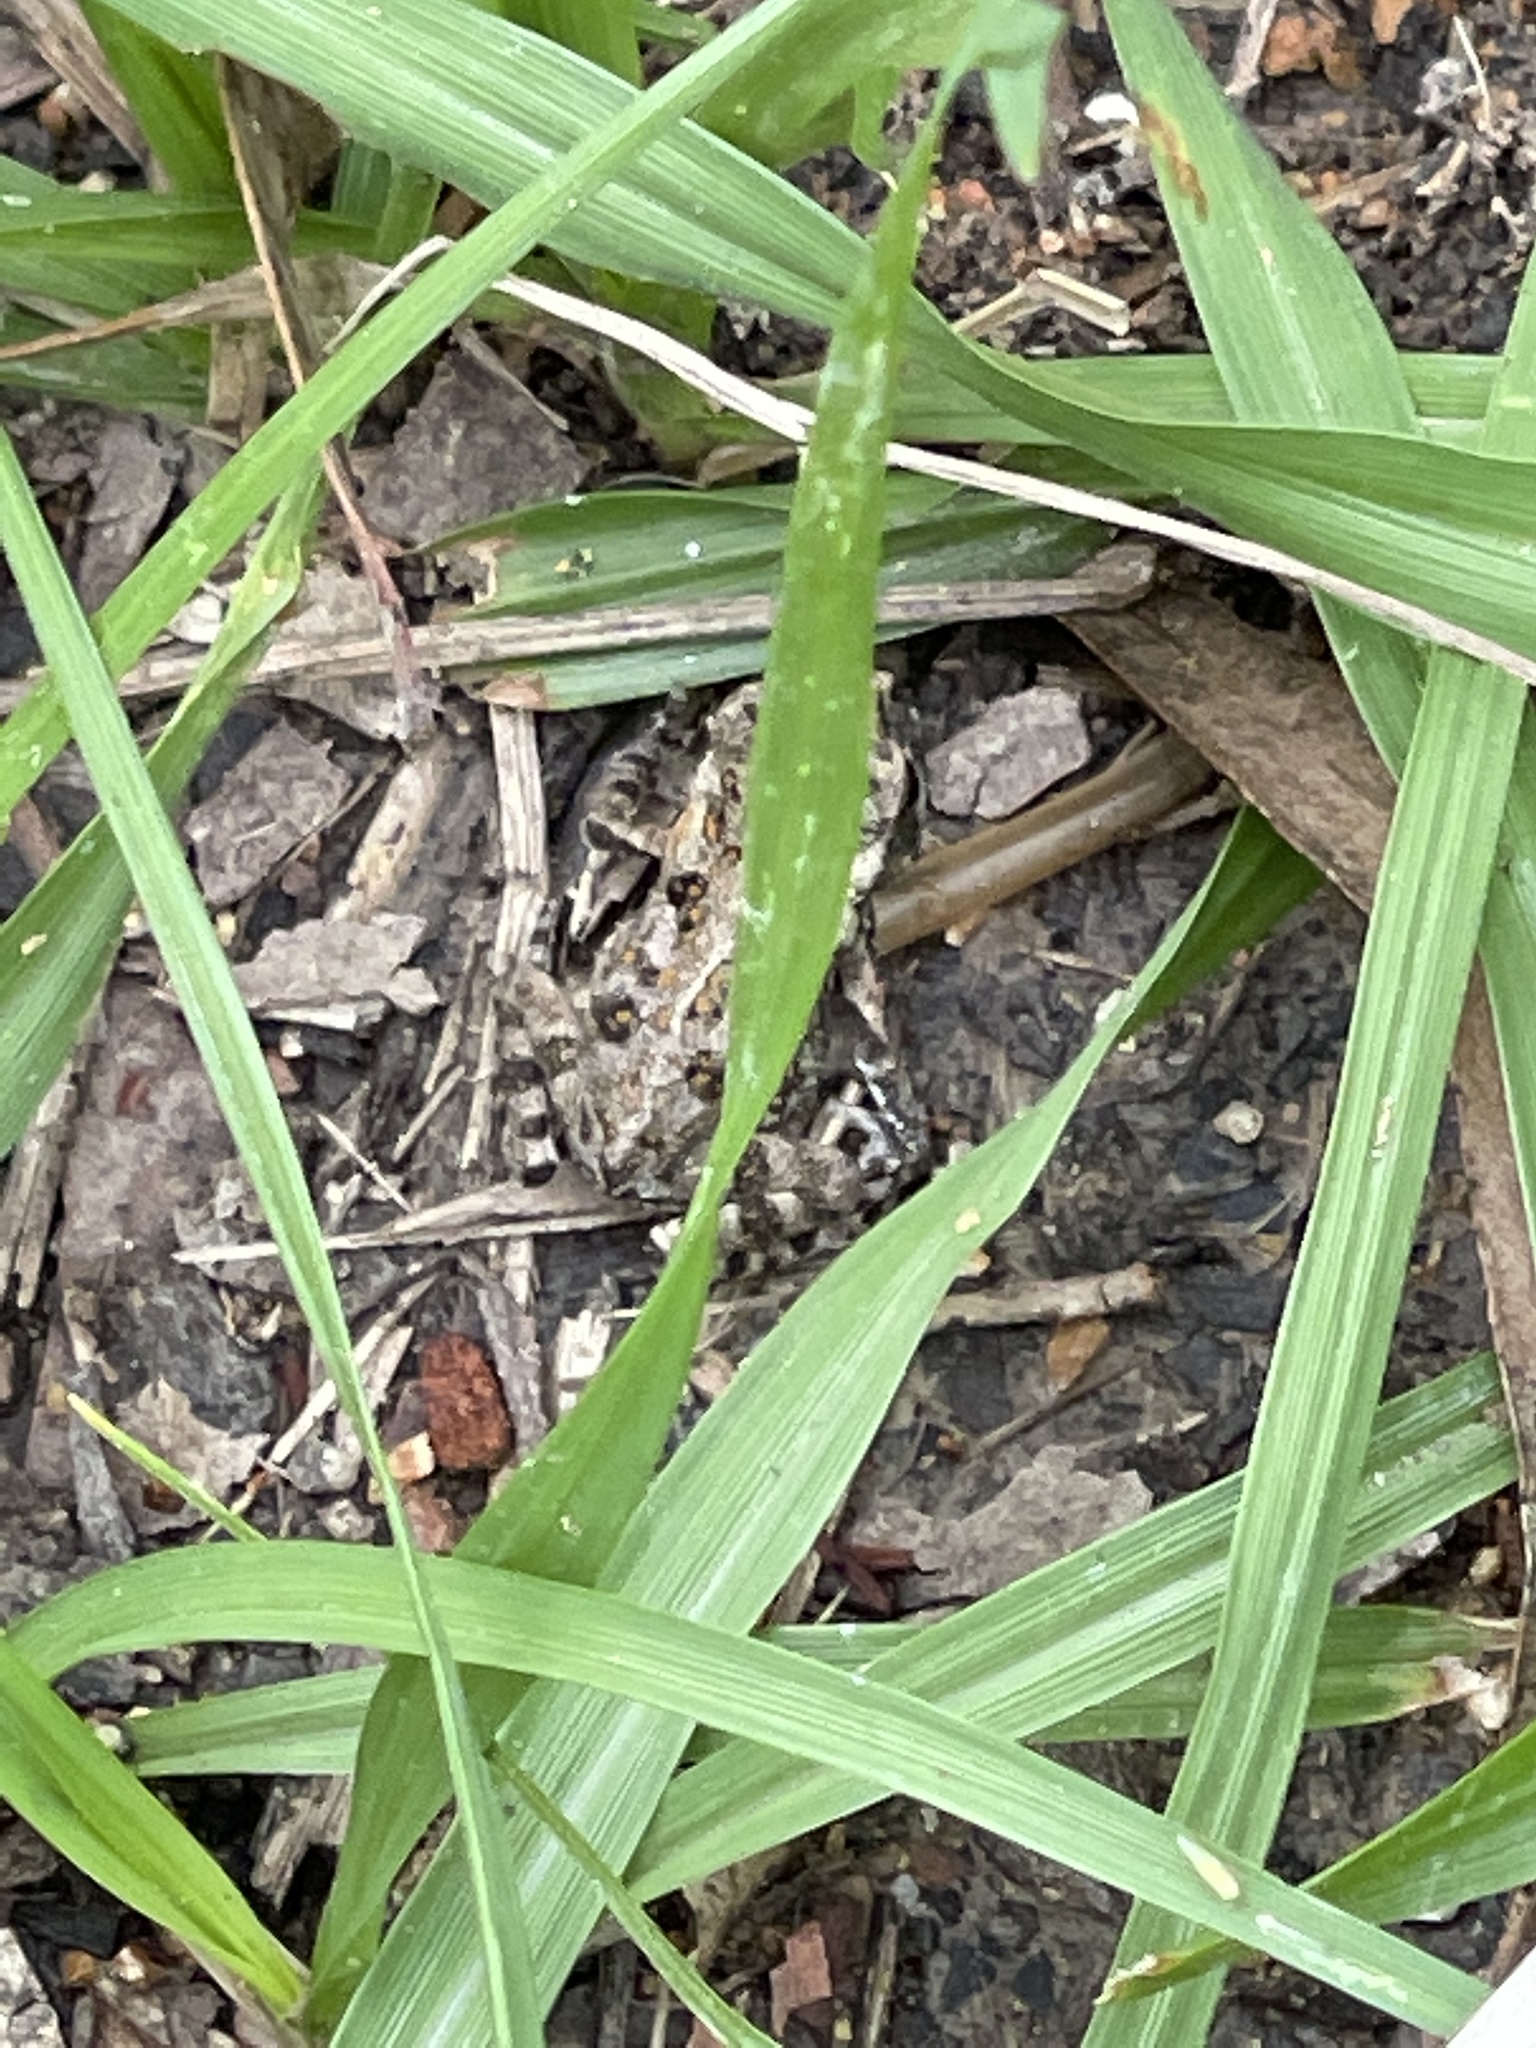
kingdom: Animalia
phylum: Chordata
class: Amphibia
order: Anura
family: Bufonidae
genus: Rhinella
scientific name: Rhinella marina
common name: Cane toad
